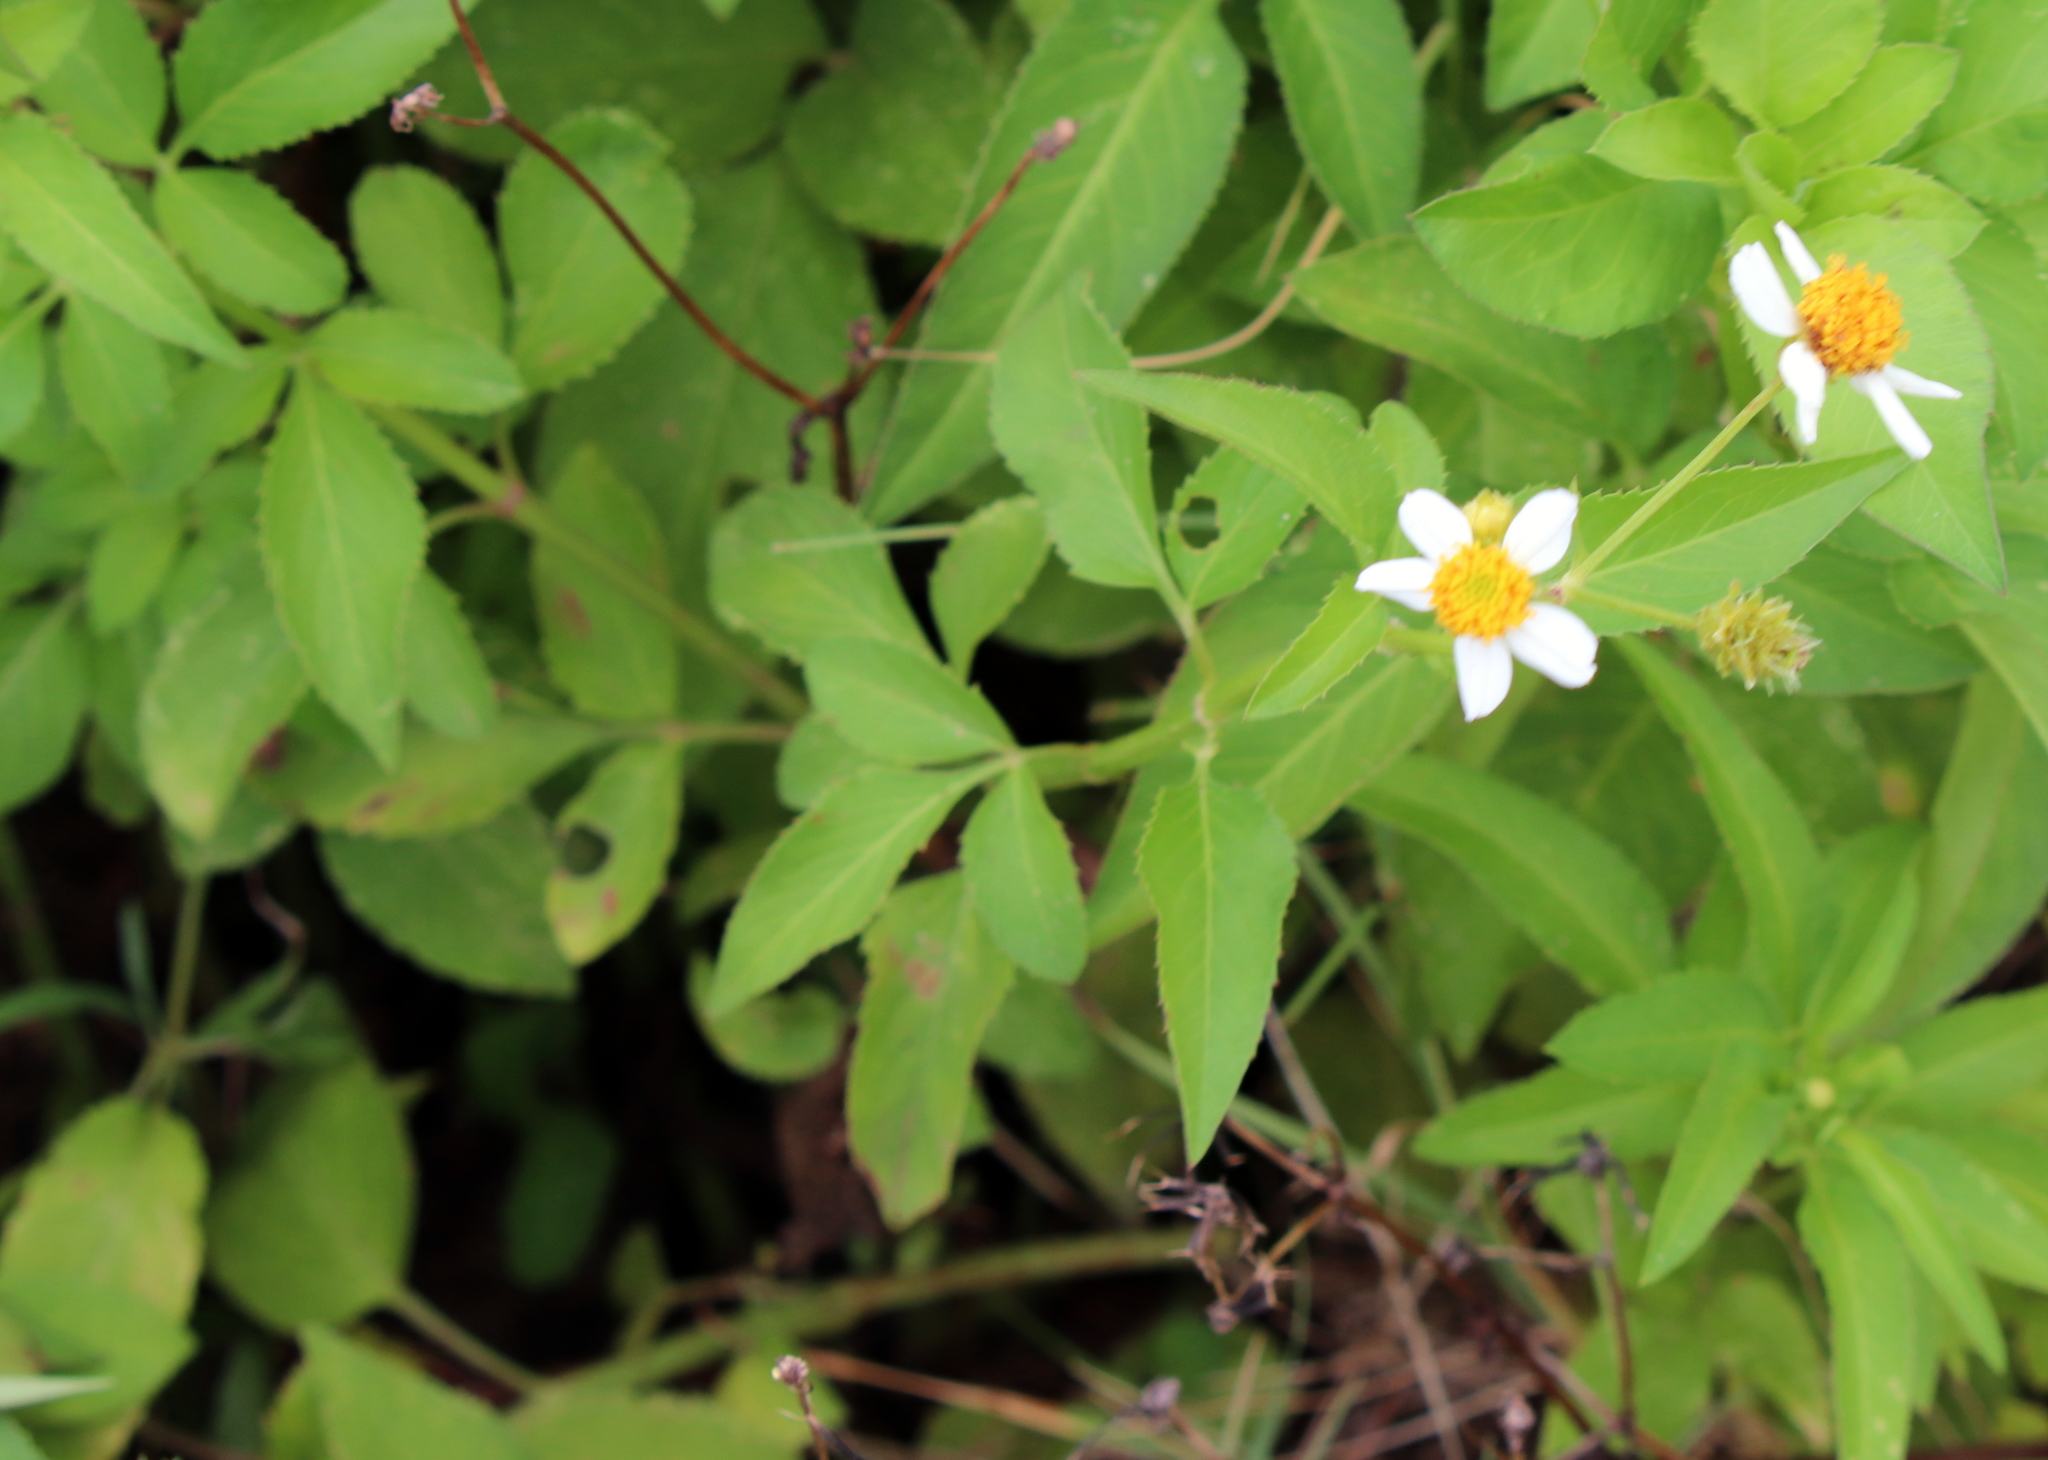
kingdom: Plantae
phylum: Tracheophyta
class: Magnoliopsida
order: Asterales
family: Asteraceae
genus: Bidens
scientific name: Bidens alba
